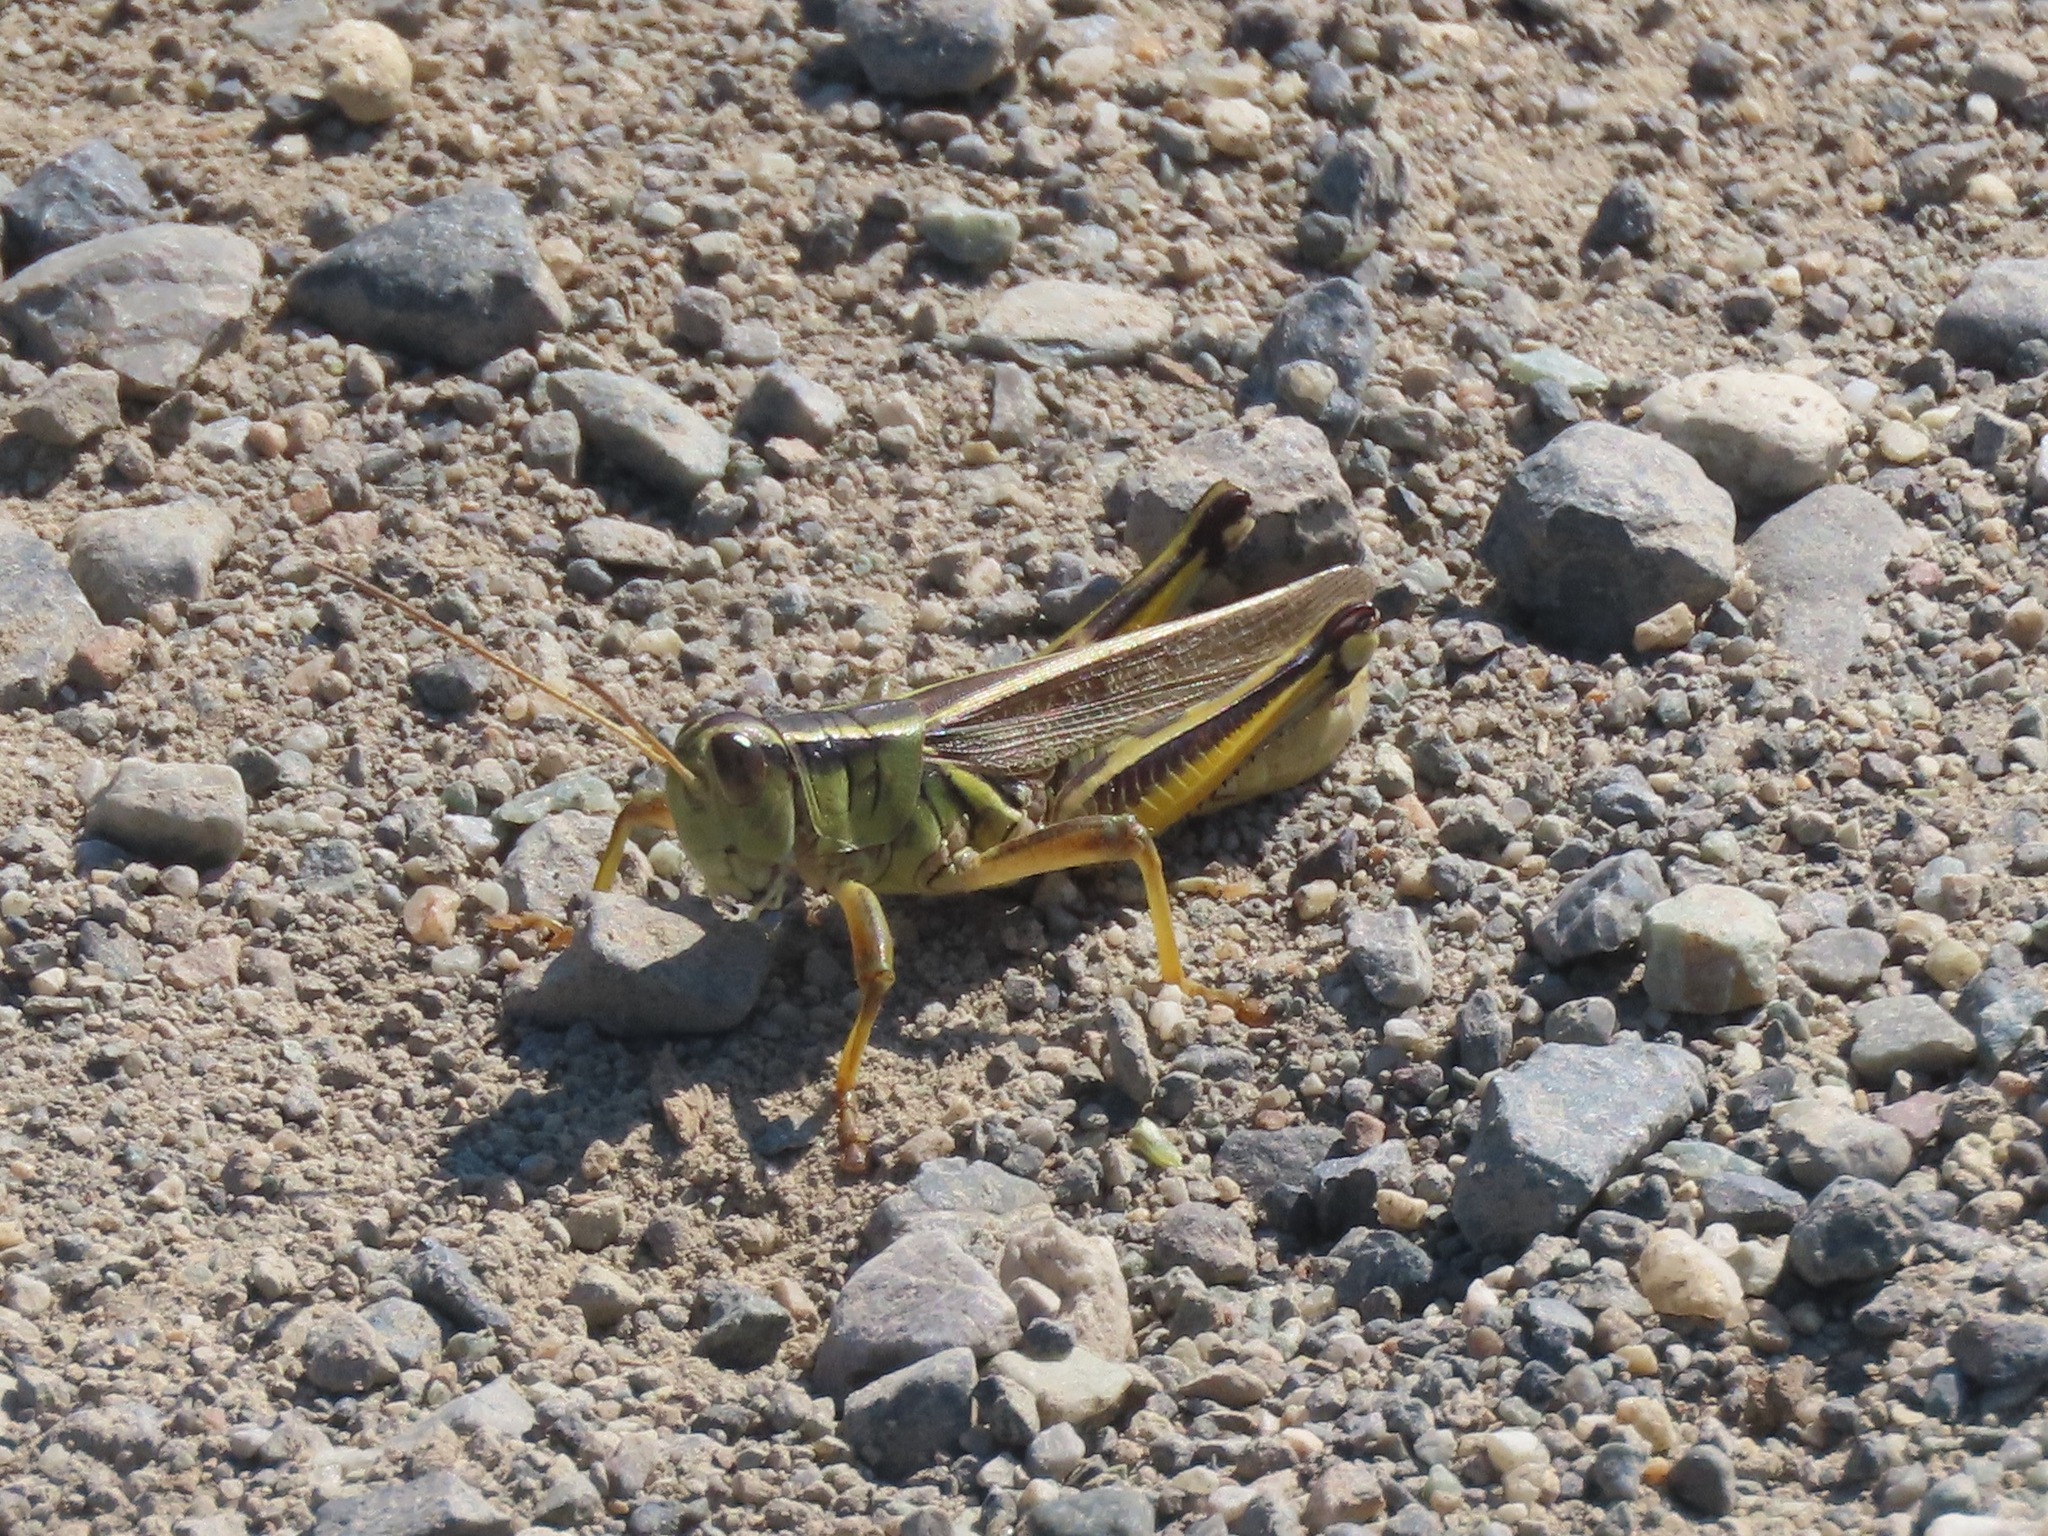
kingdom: Animalia
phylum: Arthropoda
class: Insecta
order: Orthoptera
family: Acrididae
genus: Melanoplus
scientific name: Melanoplus bivittatus
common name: Two-striped grasshopper
